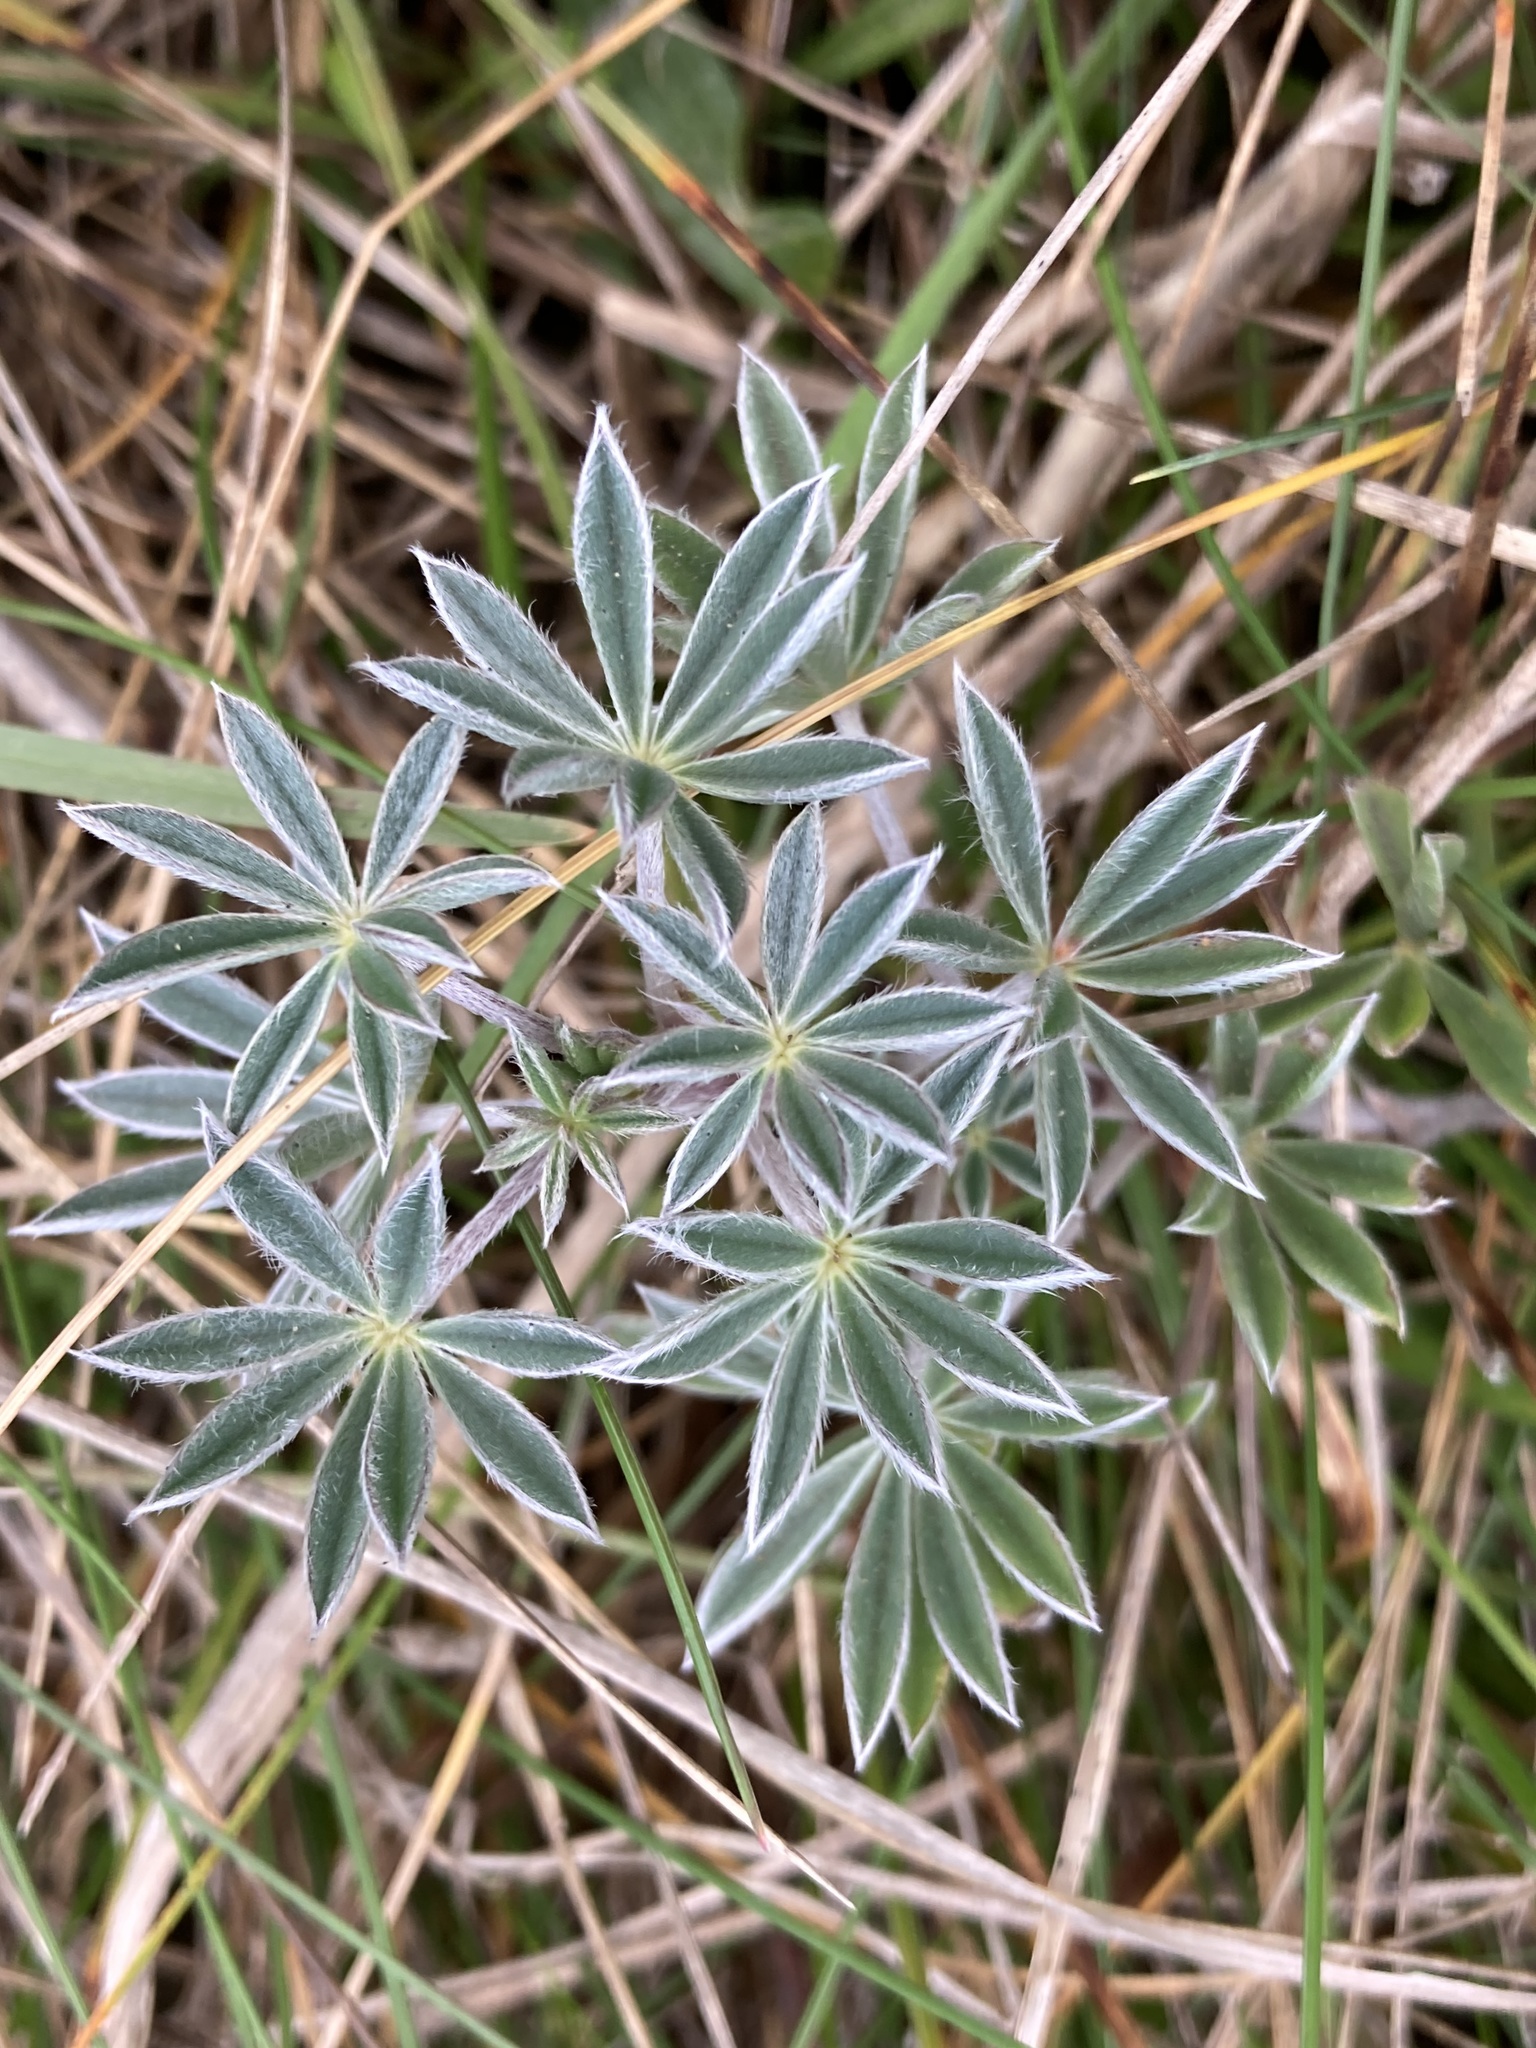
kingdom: Plantae
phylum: Tracheophyta
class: Magnoliopsida
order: Fabales
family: Fabaceae
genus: Lupinus
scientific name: Lupinus littoralis
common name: Seashore lupine
